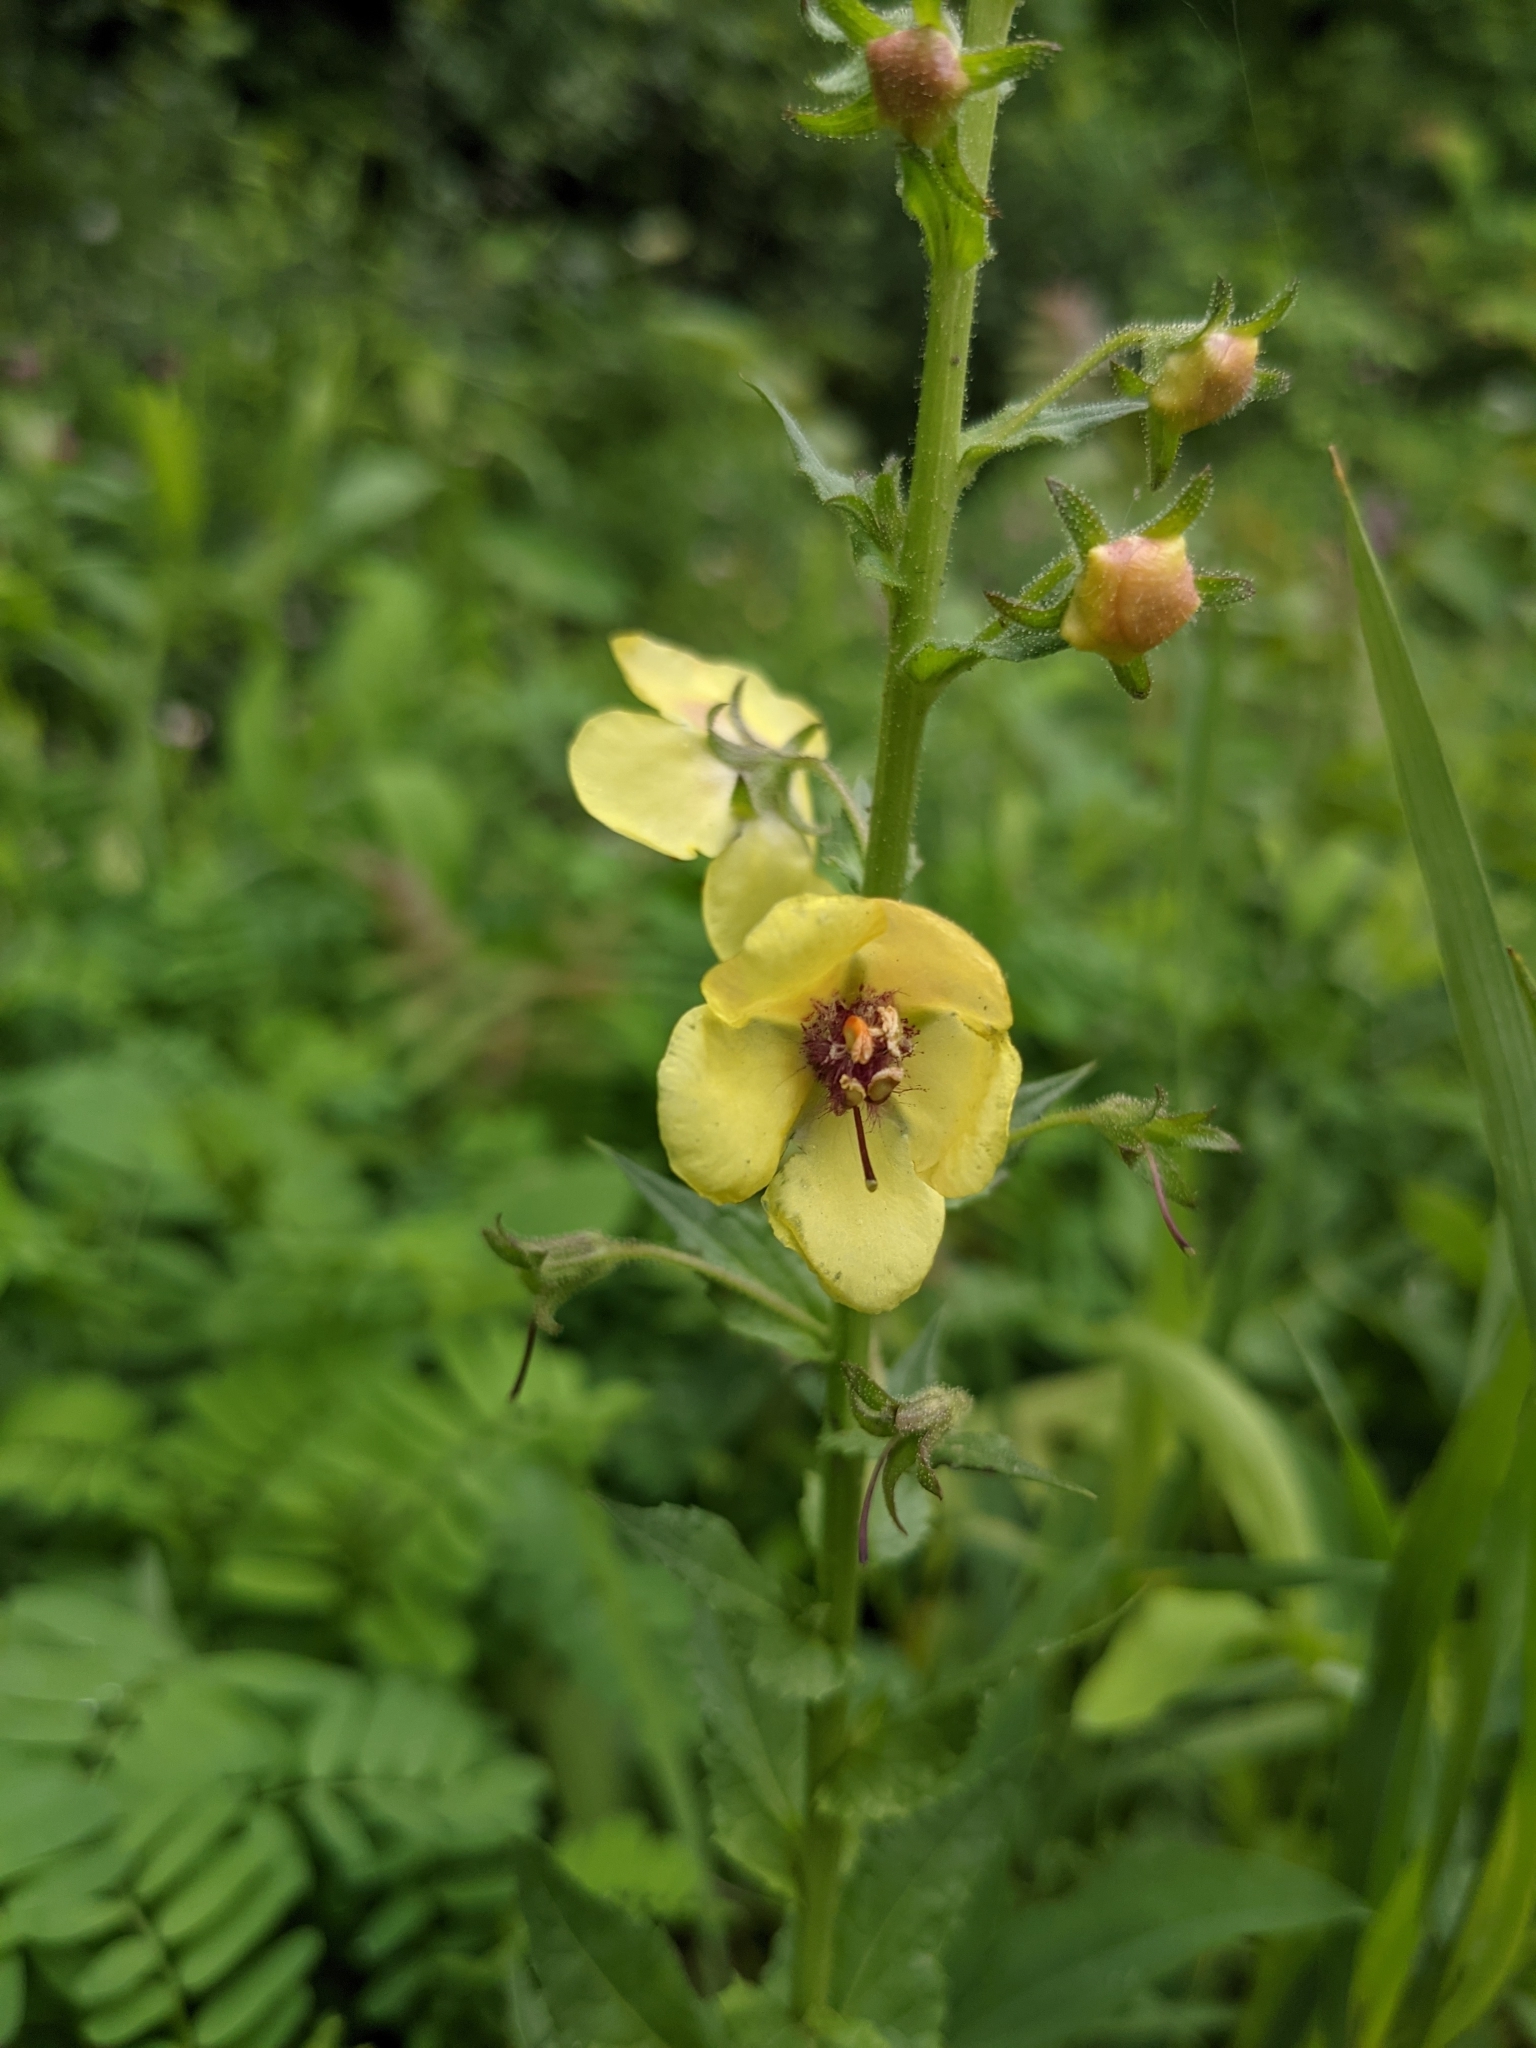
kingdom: Plantae
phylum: Tracheophyta
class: Magnoliopsida
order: Lamiales
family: Scrophulariaceae
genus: Verbascum
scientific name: Verbascum blattaria
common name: Moth mullein
